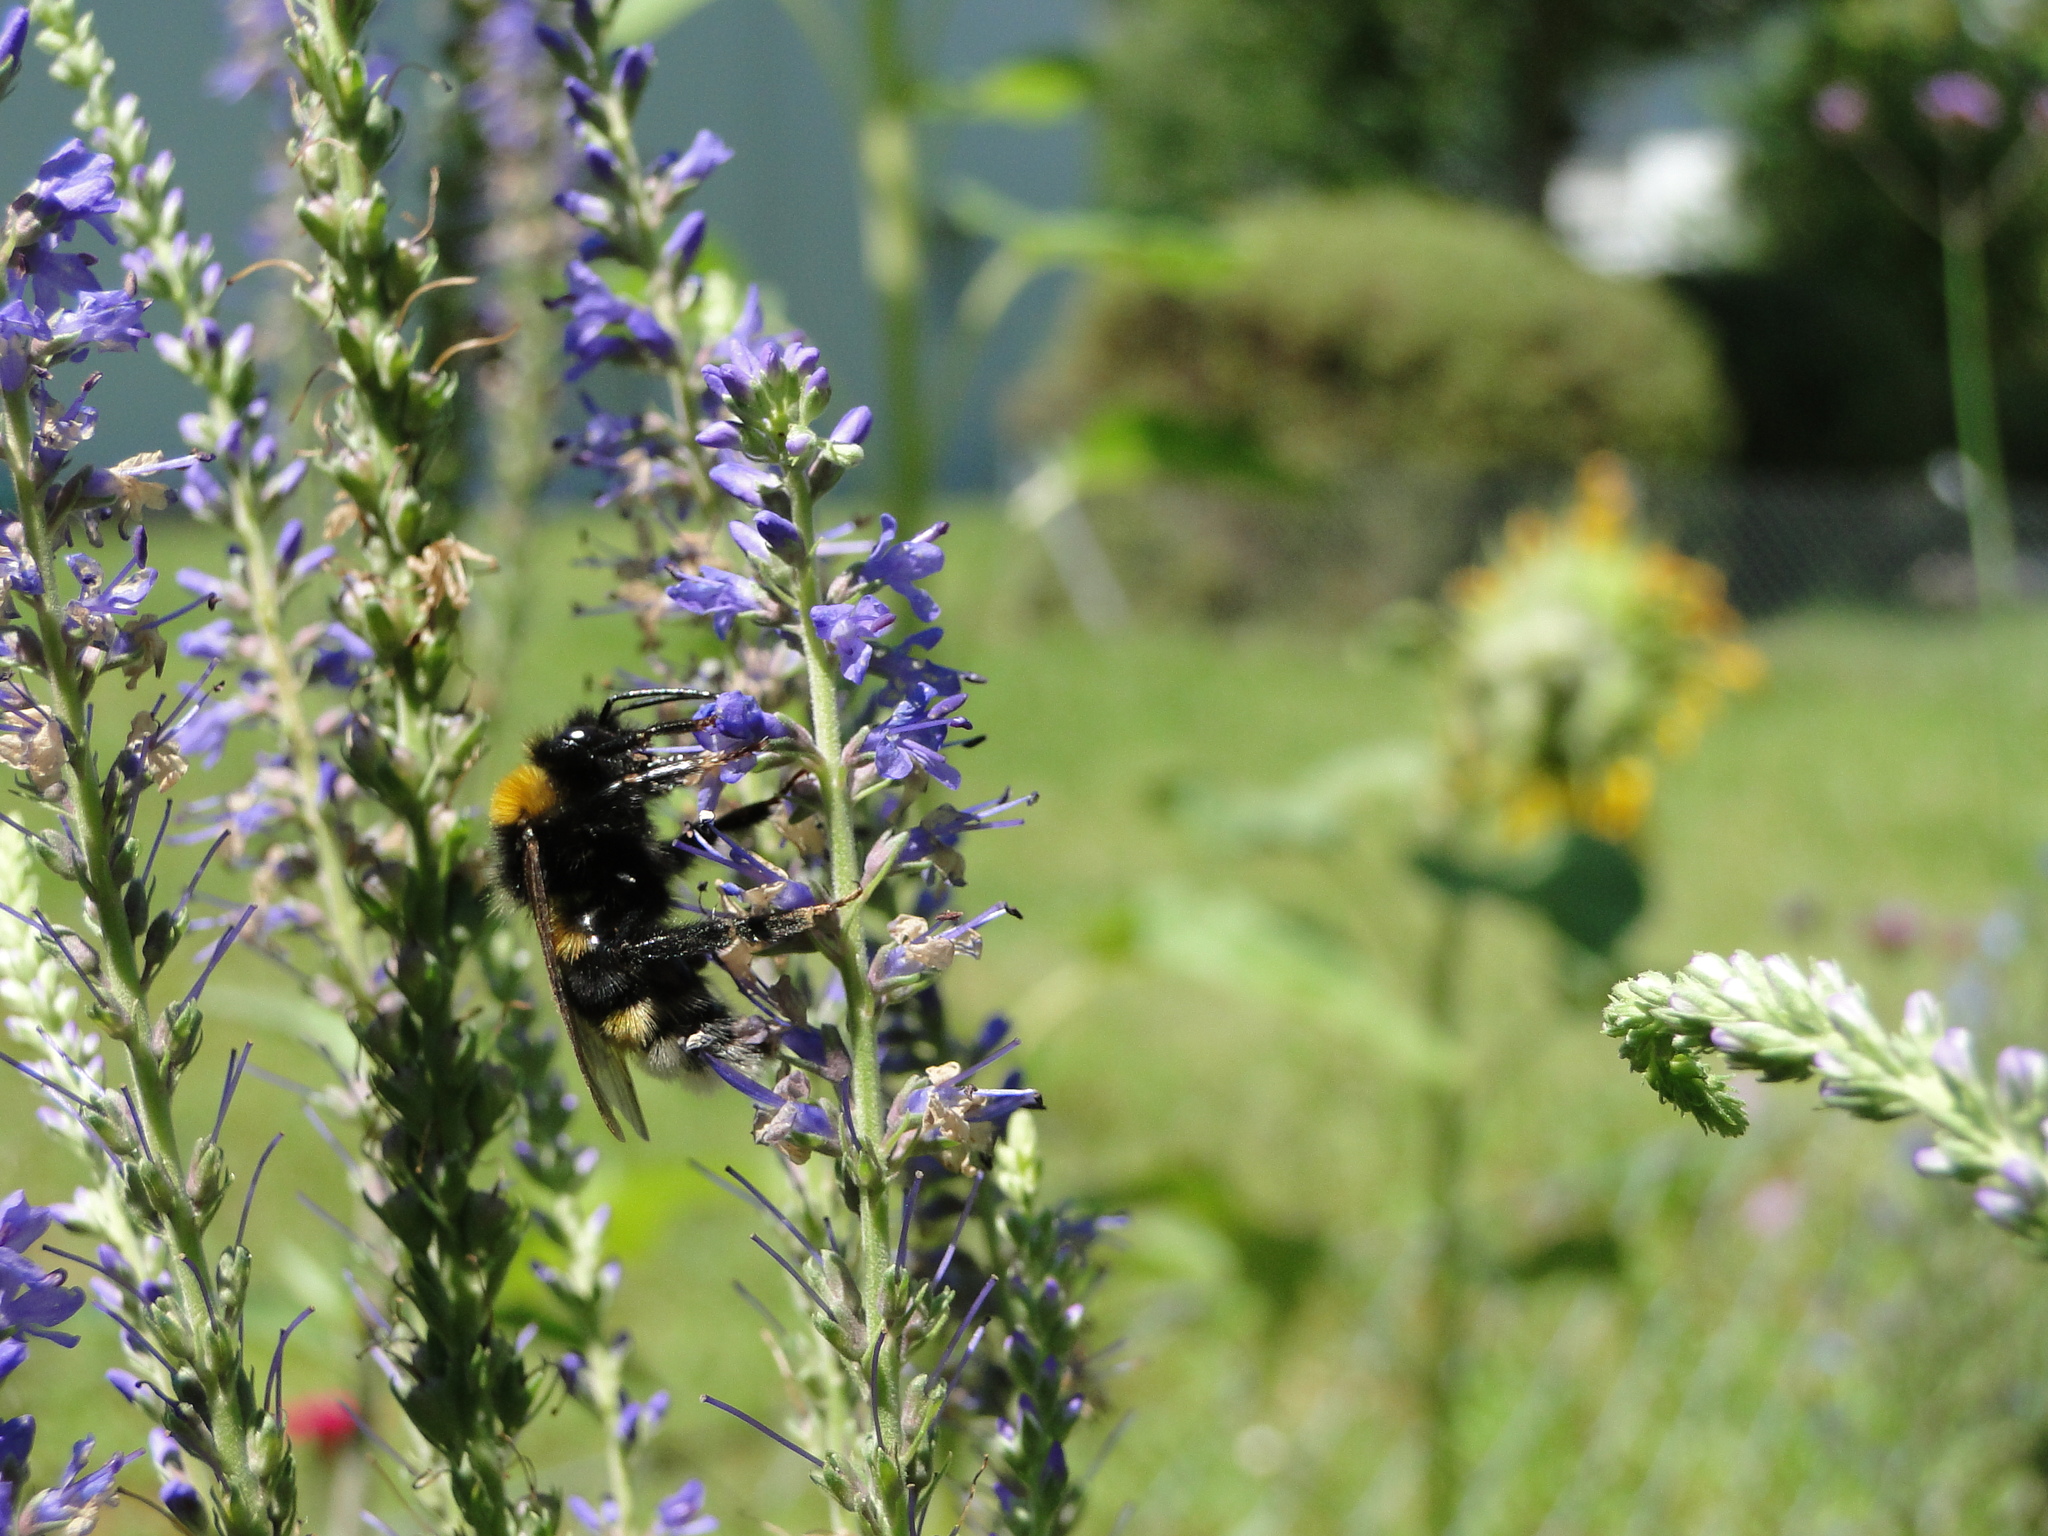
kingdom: Animalia
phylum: Arthropoda
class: Insecta
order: Hymenoptera
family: Apidae
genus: Bombus
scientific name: Bombus vestalis
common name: Vestal cuckoo bee
